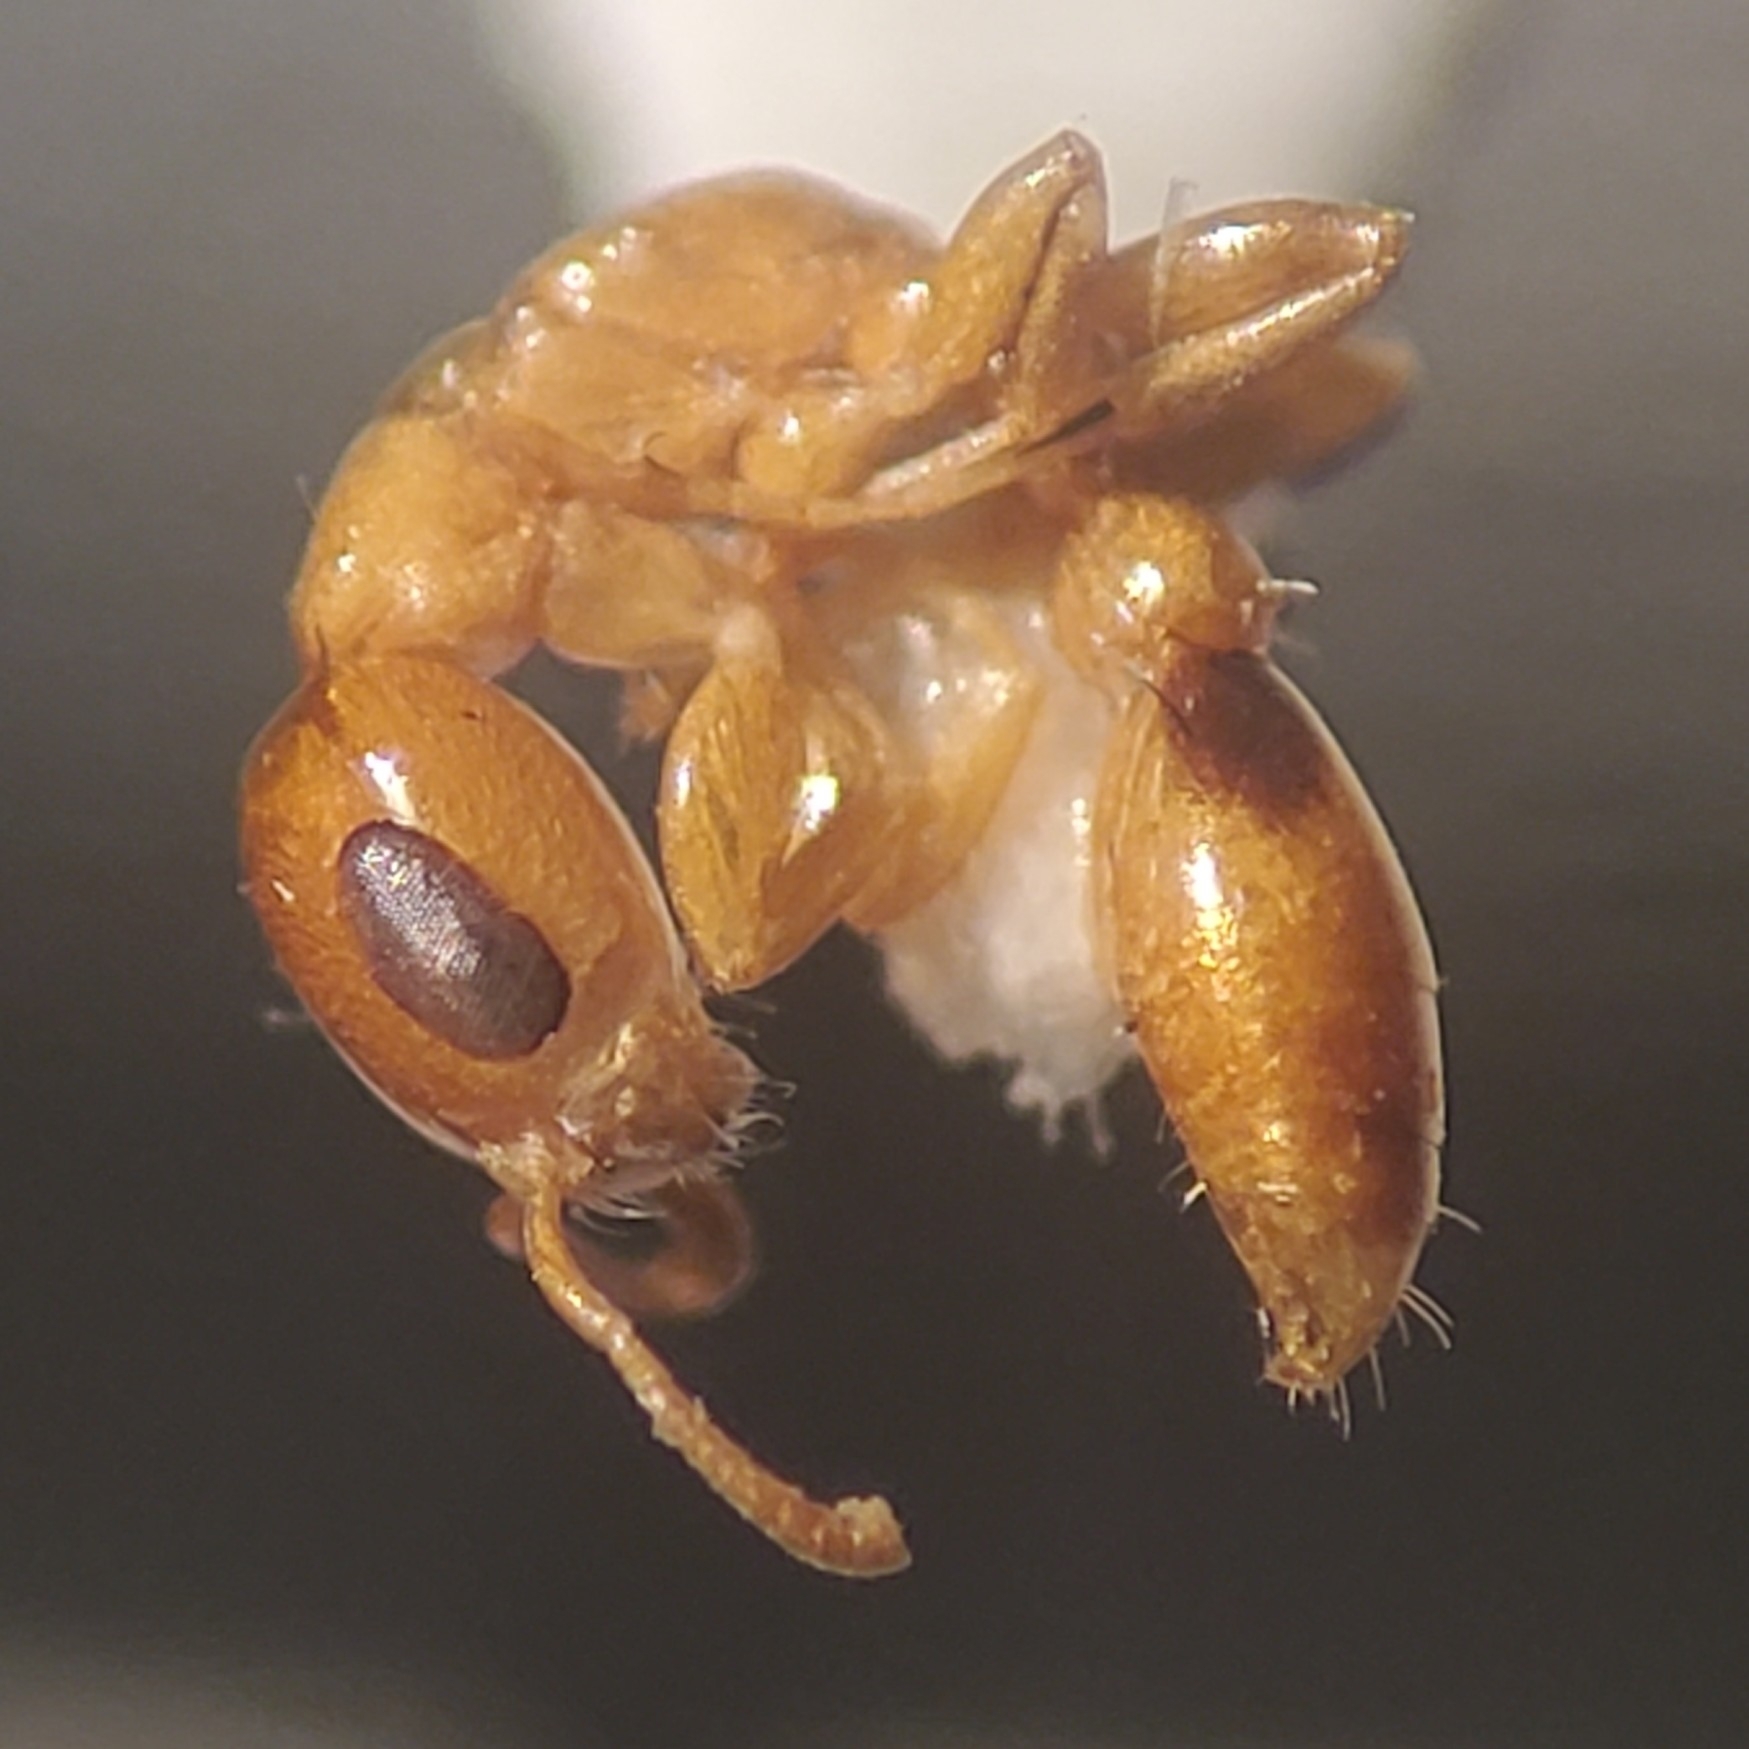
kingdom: Animalia
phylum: Arthropoda
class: Insecta
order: Hymenoptera
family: Formicidae
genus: Pseudomyrmex
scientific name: Pseudomyrmex simplex
